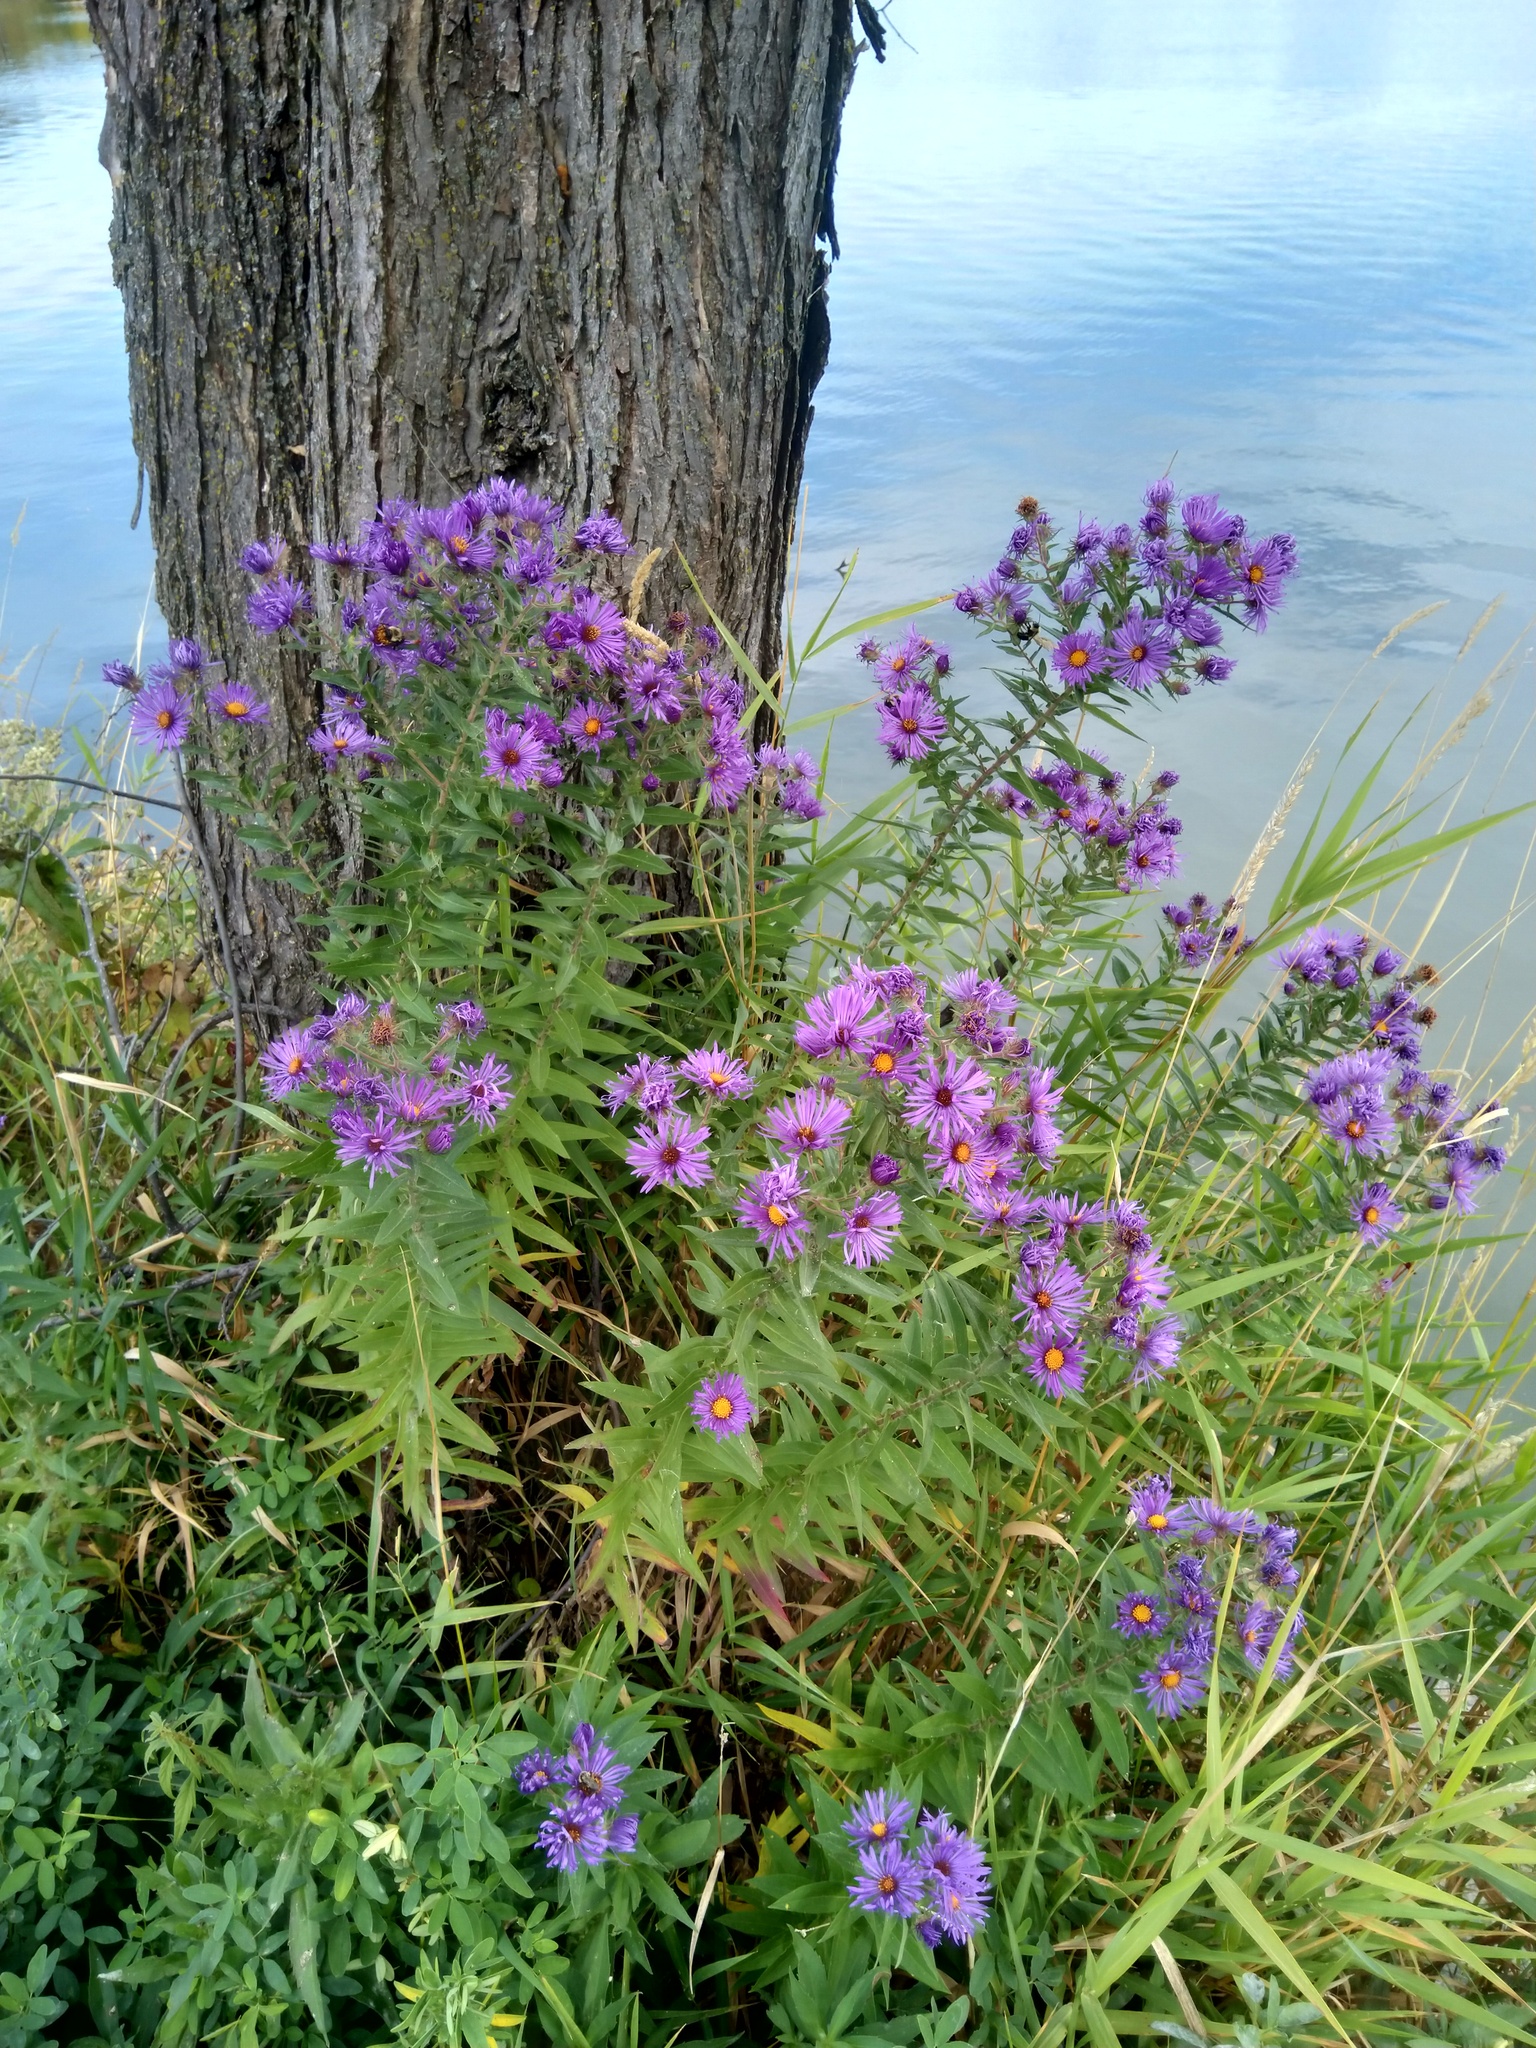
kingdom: Plantae
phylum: Tracheophyta
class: Magnoliopsida
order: Asterales
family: Asteraceae
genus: Symphyotrichum
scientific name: Symphyotrichum novae-angliae
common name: Michaelmas daisy
